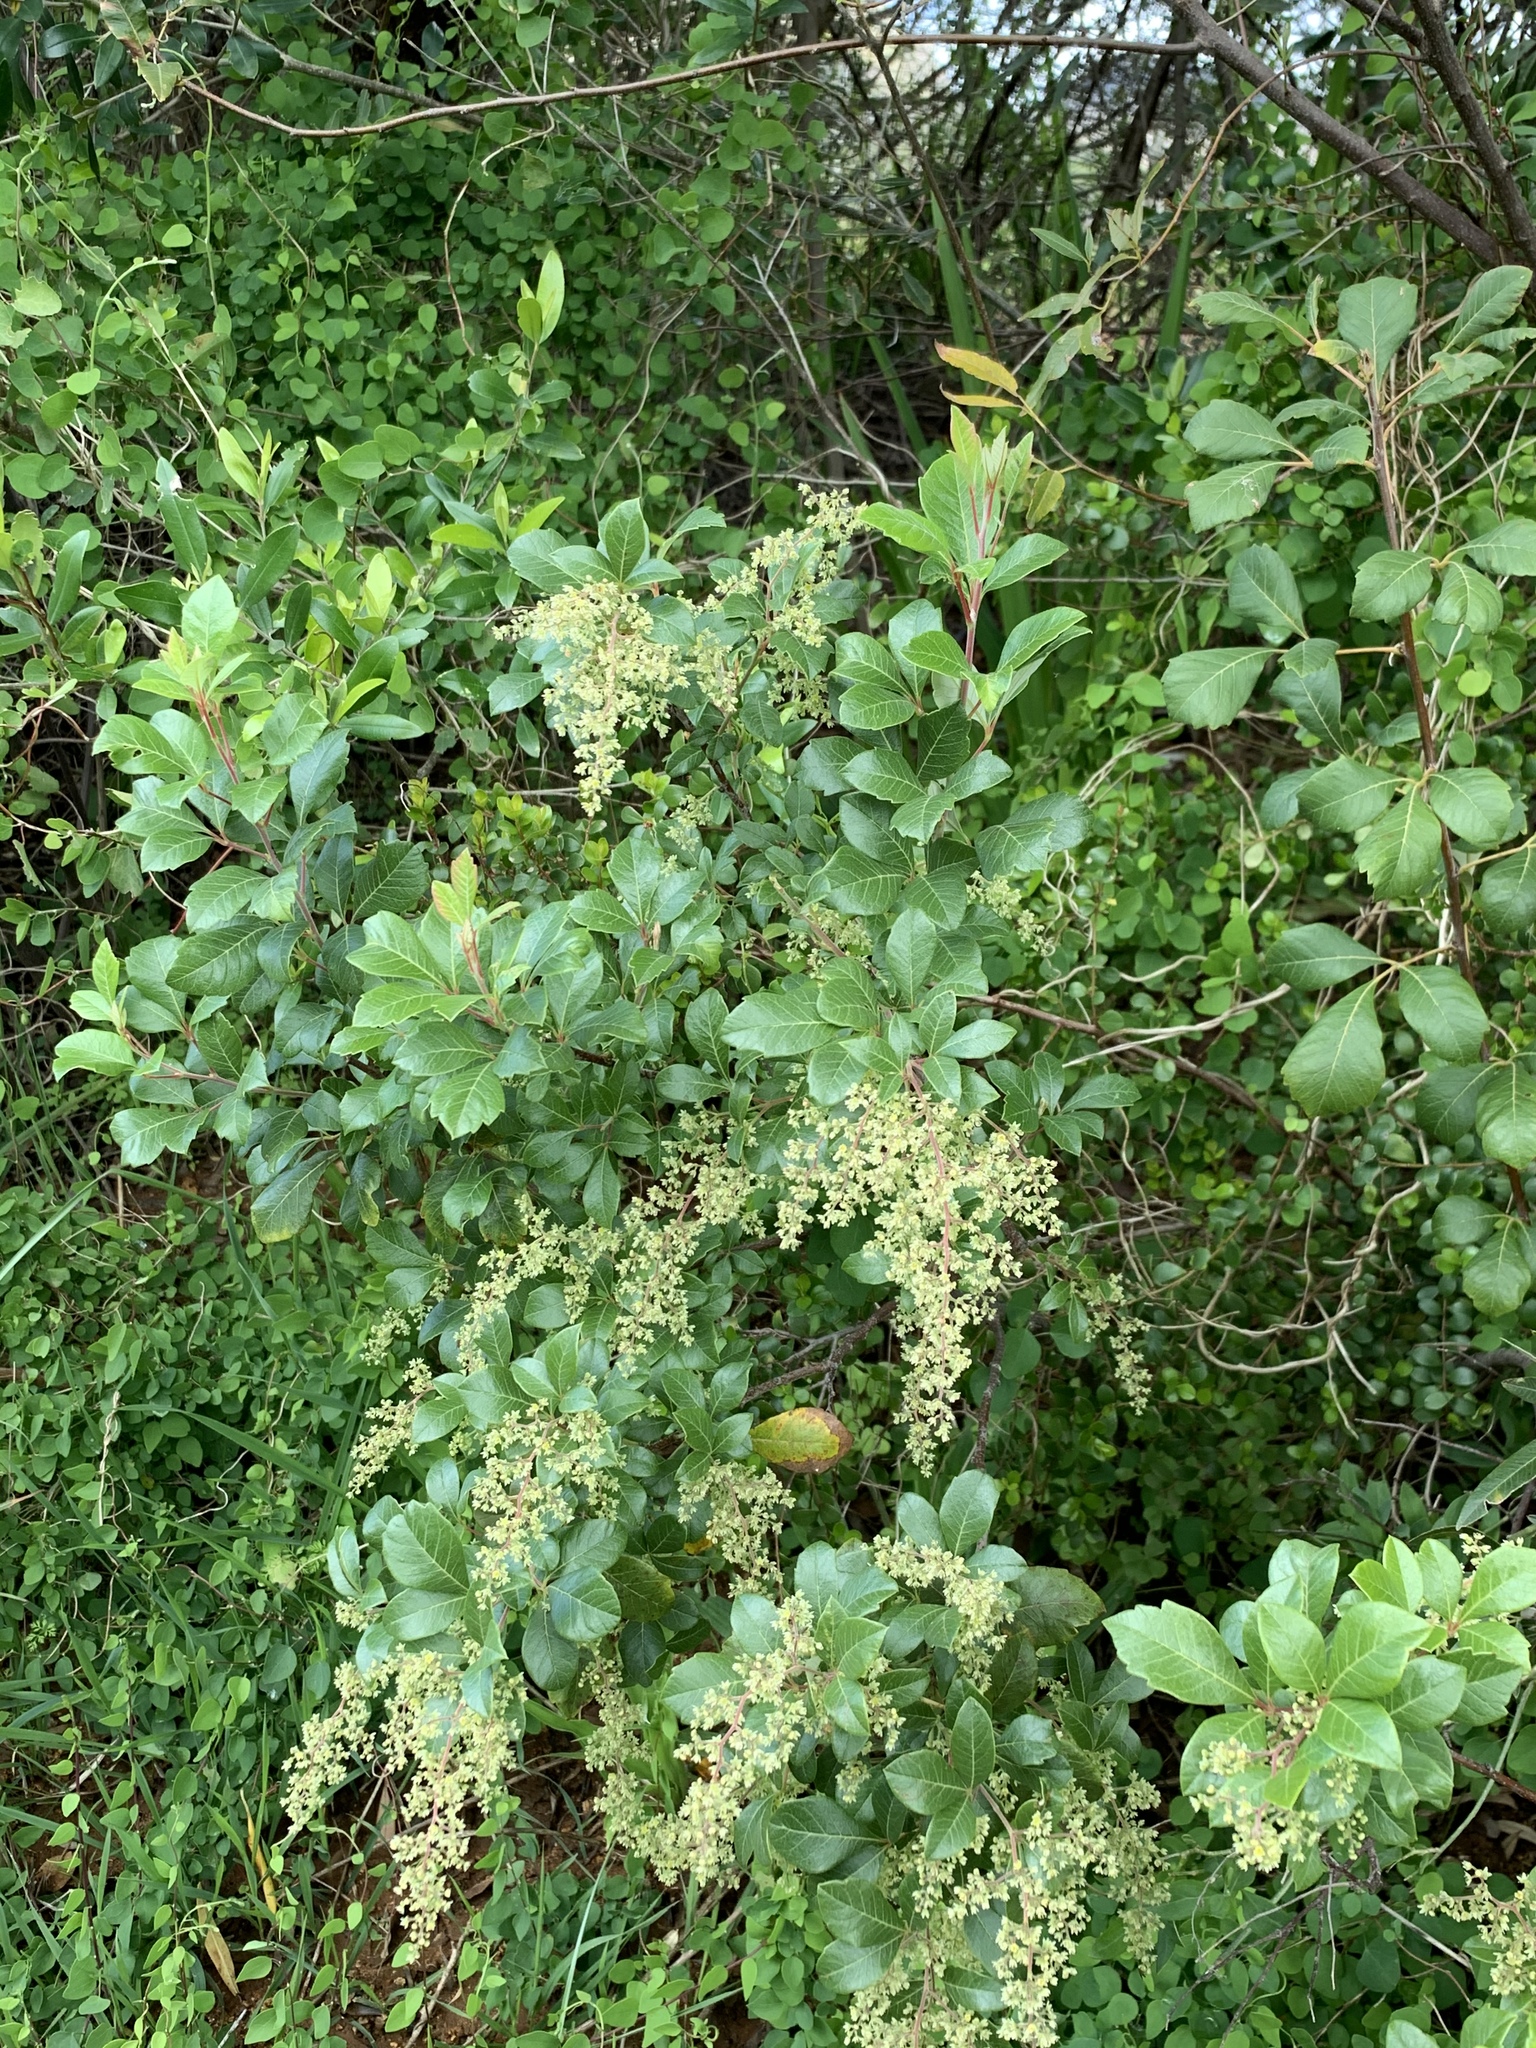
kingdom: Plantae
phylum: Tracheophyta
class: Magnoliopsida
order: Sapindales
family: Anacardiaceae
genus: Searsia
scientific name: Searsia tomentosa
